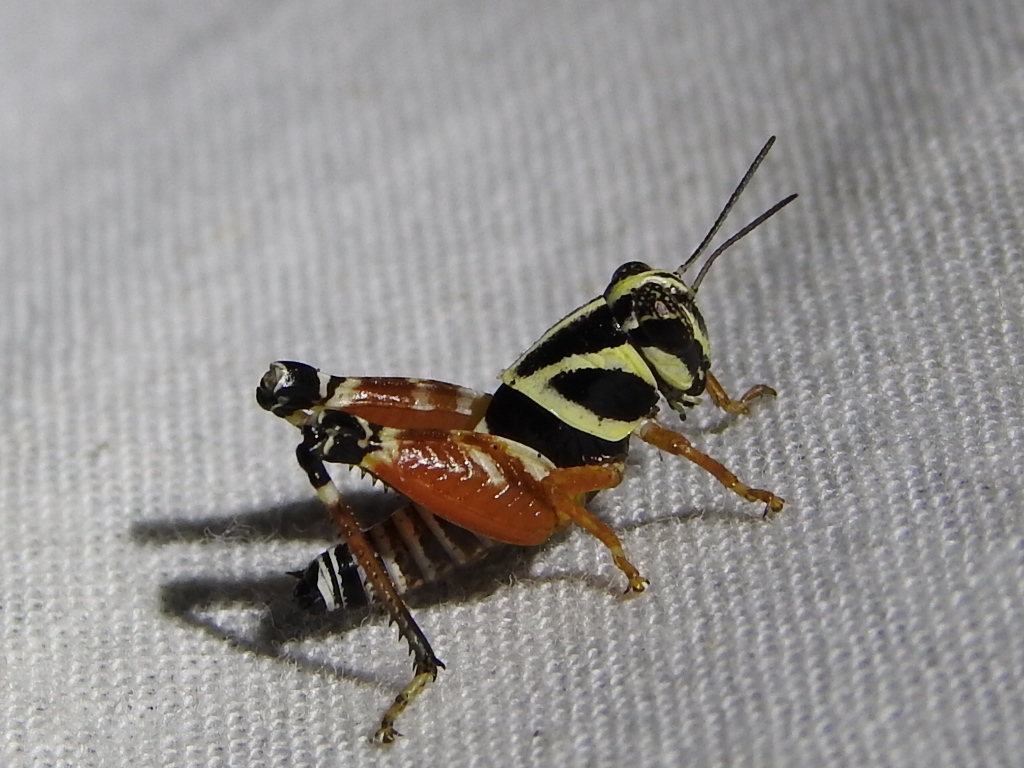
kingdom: Animalia
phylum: Arthropoda
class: Insecta
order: Orthoptera
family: Acrididae
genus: Aidemona
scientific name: Aidemona azteca
